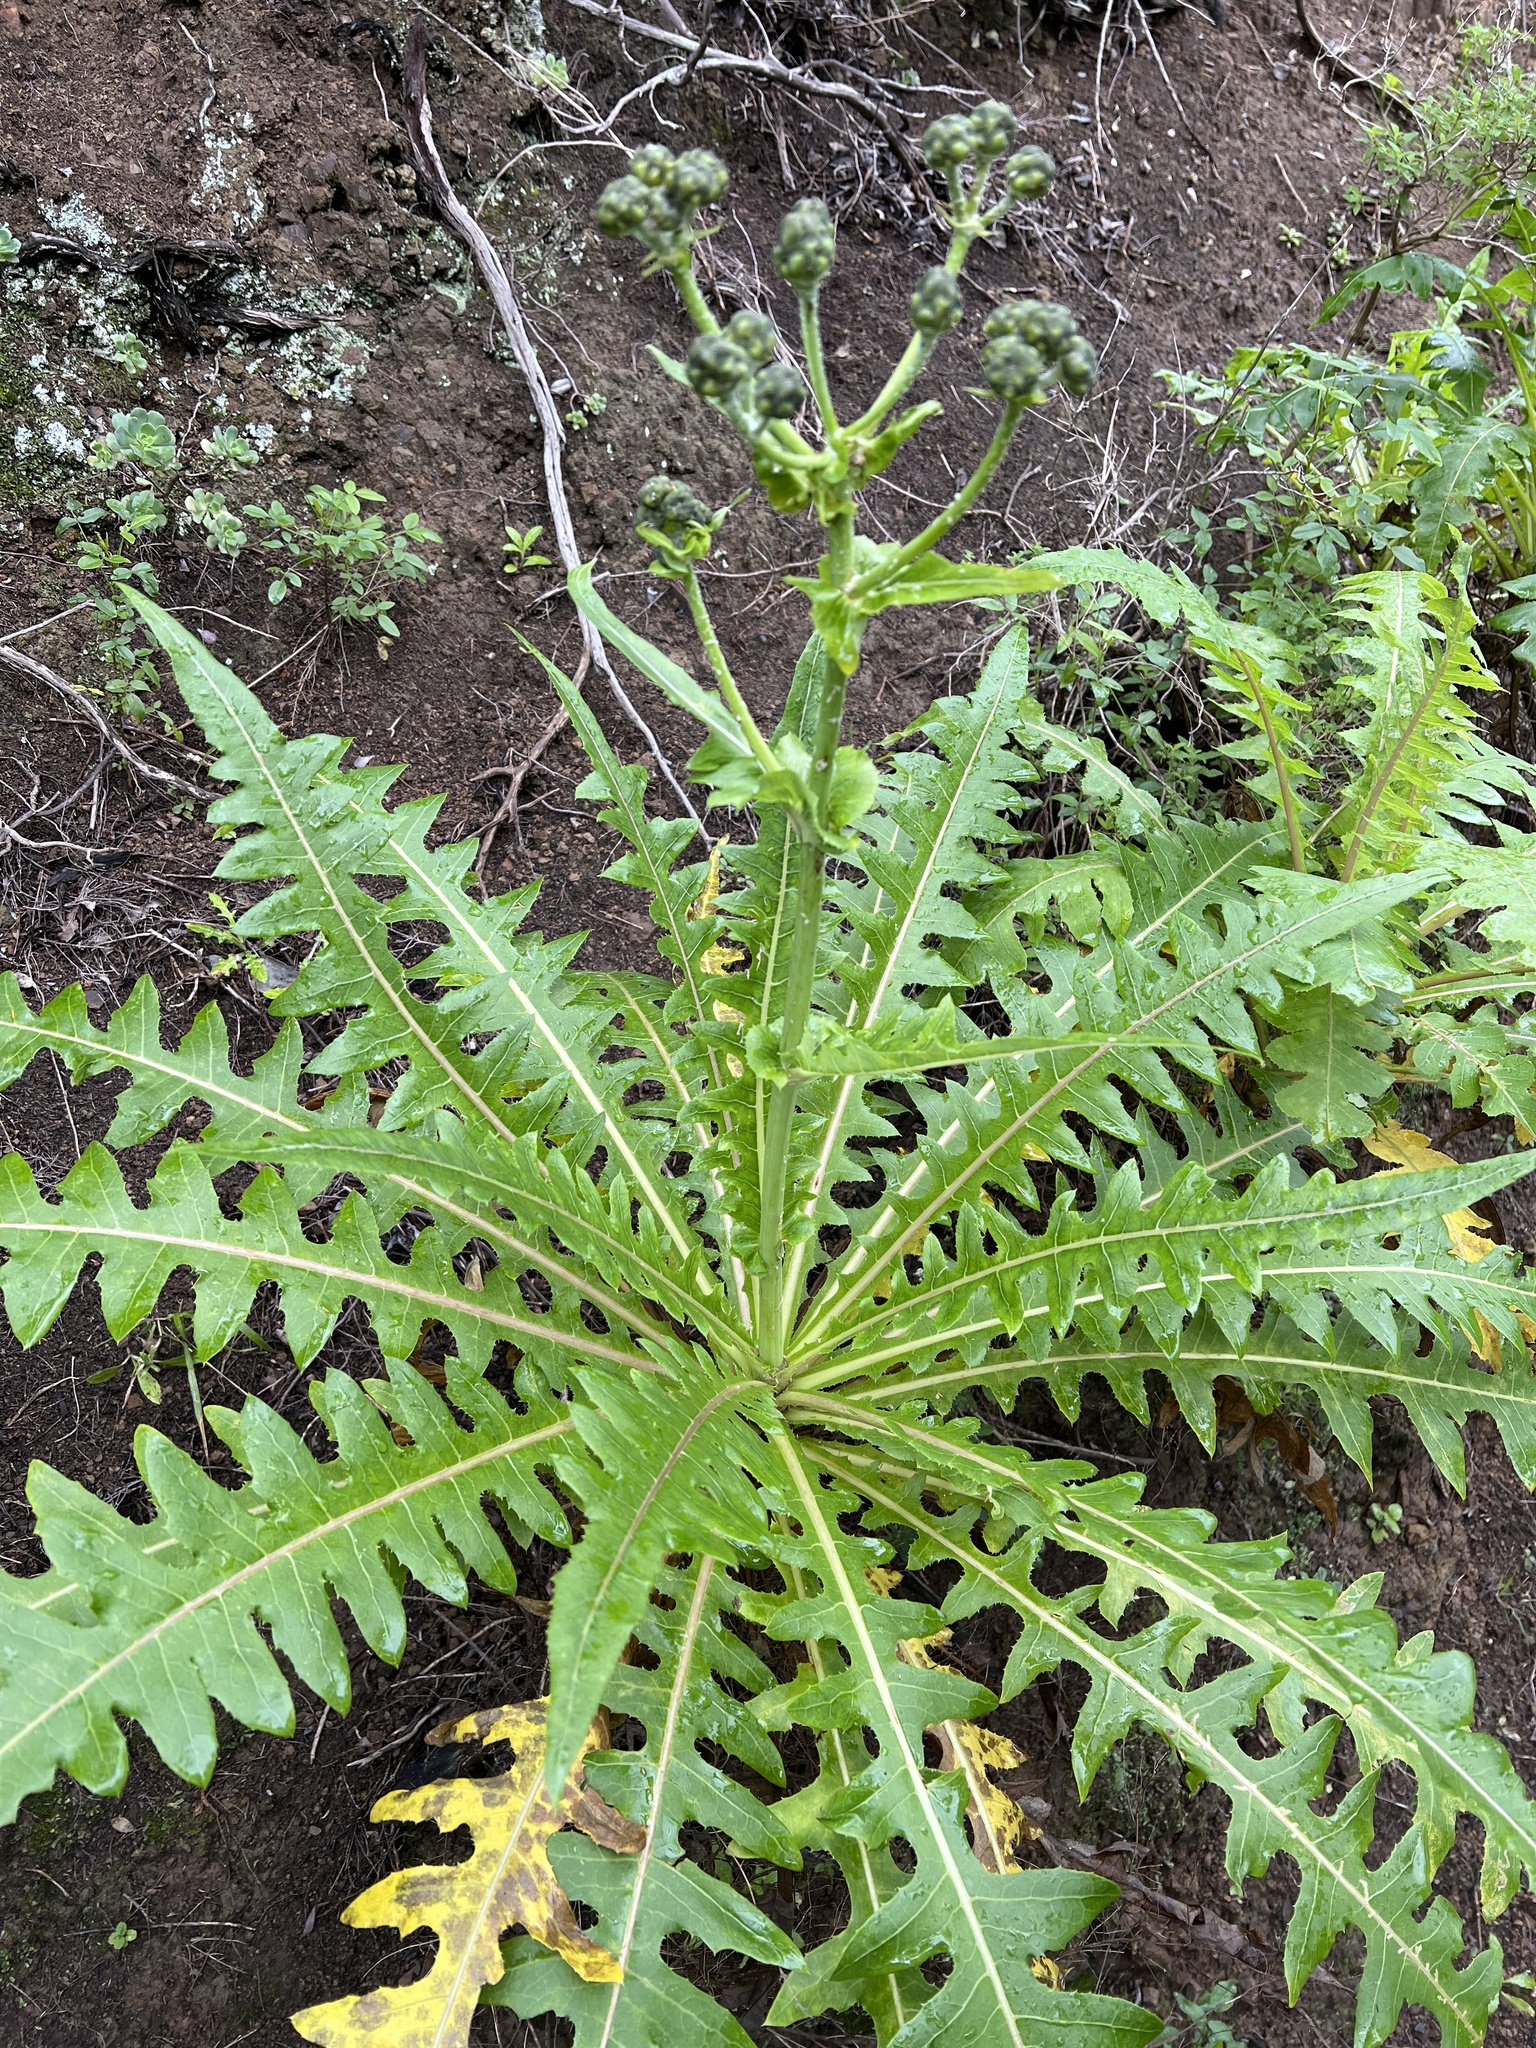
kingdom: Plantae
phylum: Tracheophyta
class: Magnoliopsida
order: Asterales
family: Asteraceae
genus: Sonchus
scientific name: Sonchus hierrensis
